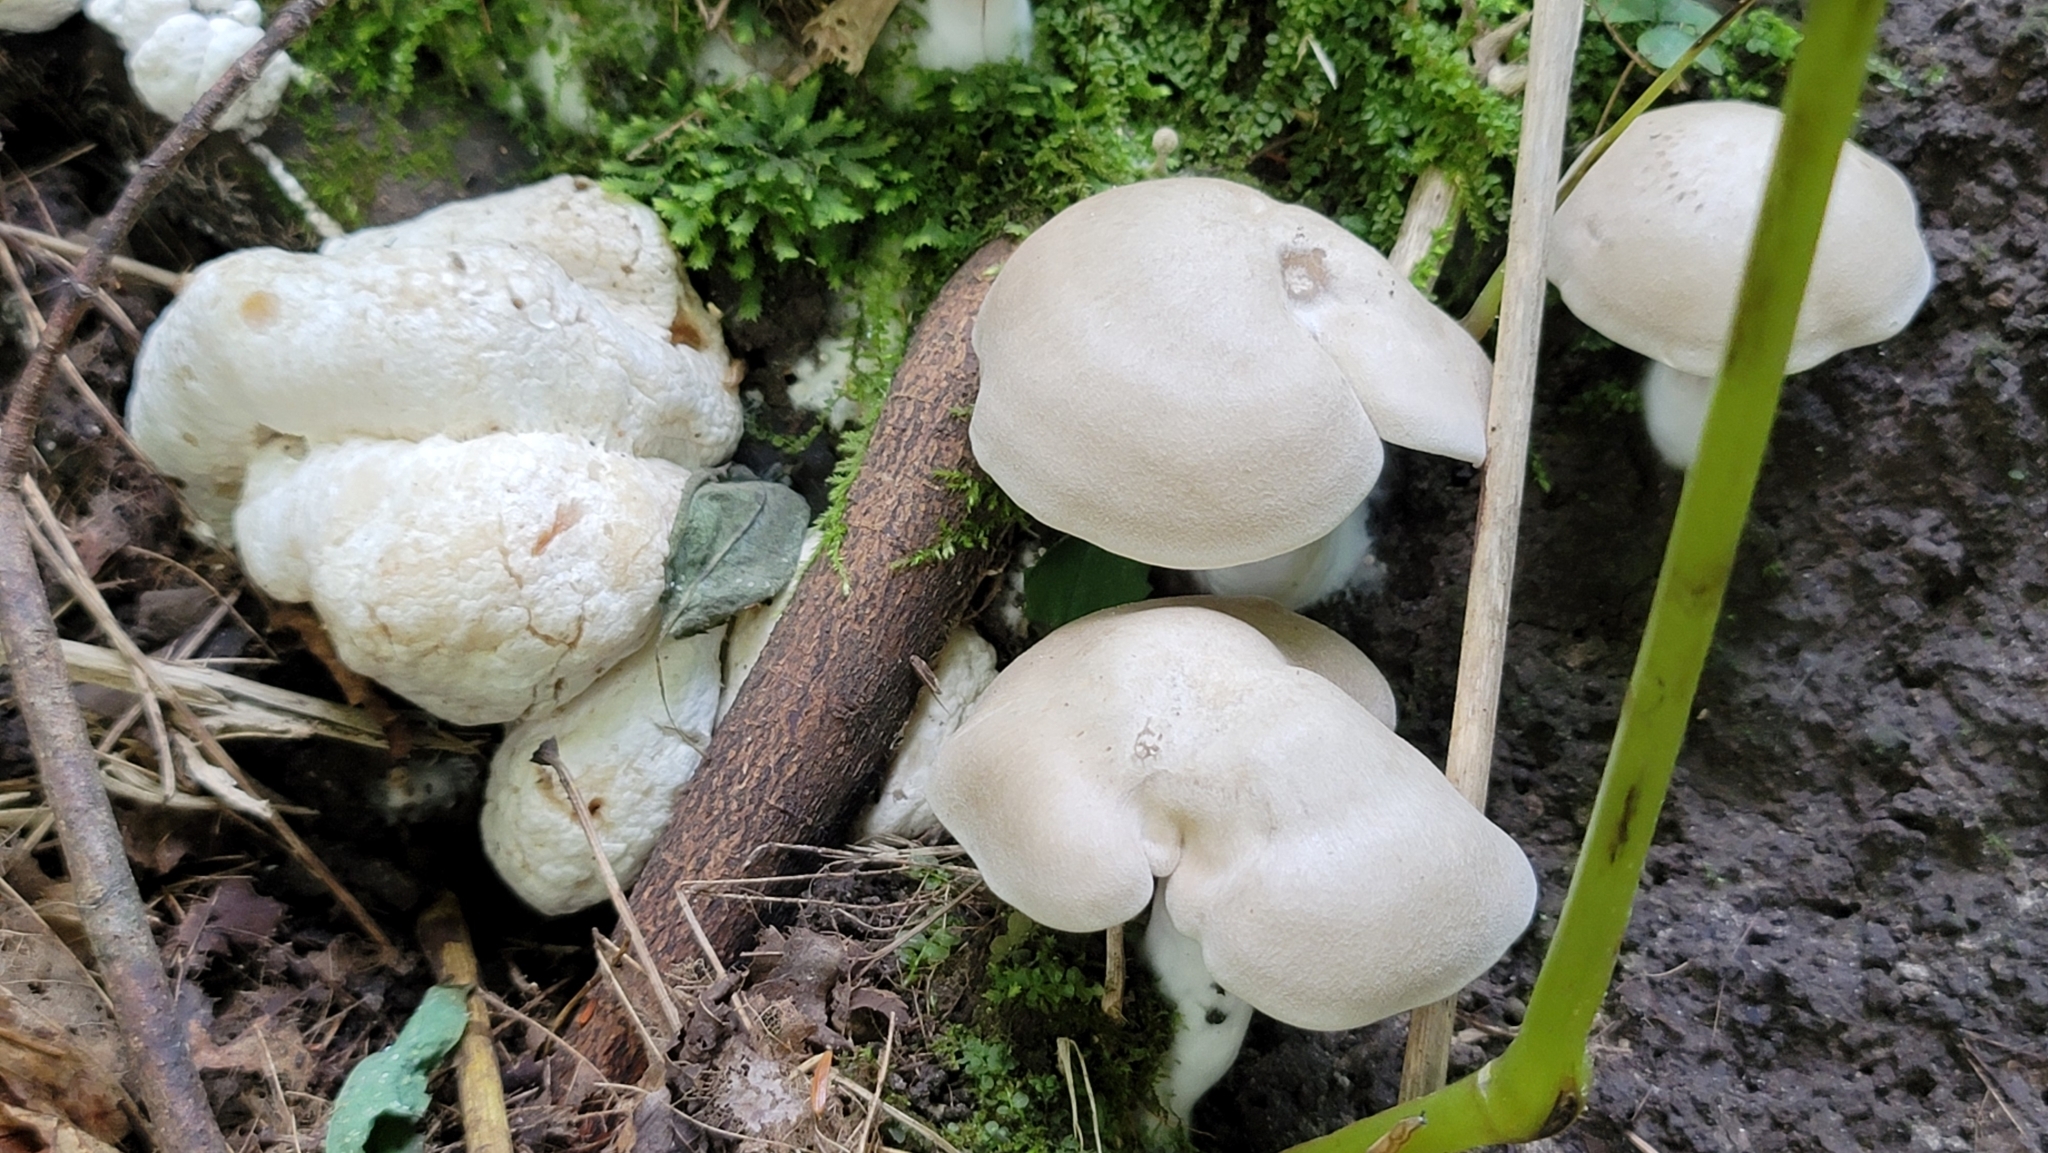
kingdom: Fungi
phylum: Basidiomycota
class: Agaricomycetes
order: Agaricales
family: Entolomataceae
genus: Entoloma
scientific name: Entoloma abortivum
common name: Aborted entoloma
